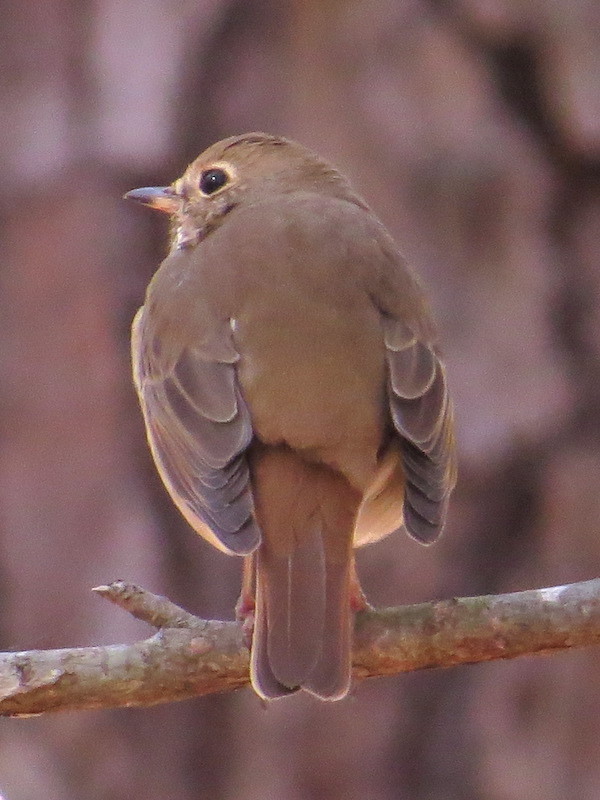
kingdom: Animalia
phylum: Chordata
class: Aves
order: Passeriformes
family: Turdidae
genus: Catharus
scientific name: Catharus guttatus
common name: Hermit thrush
